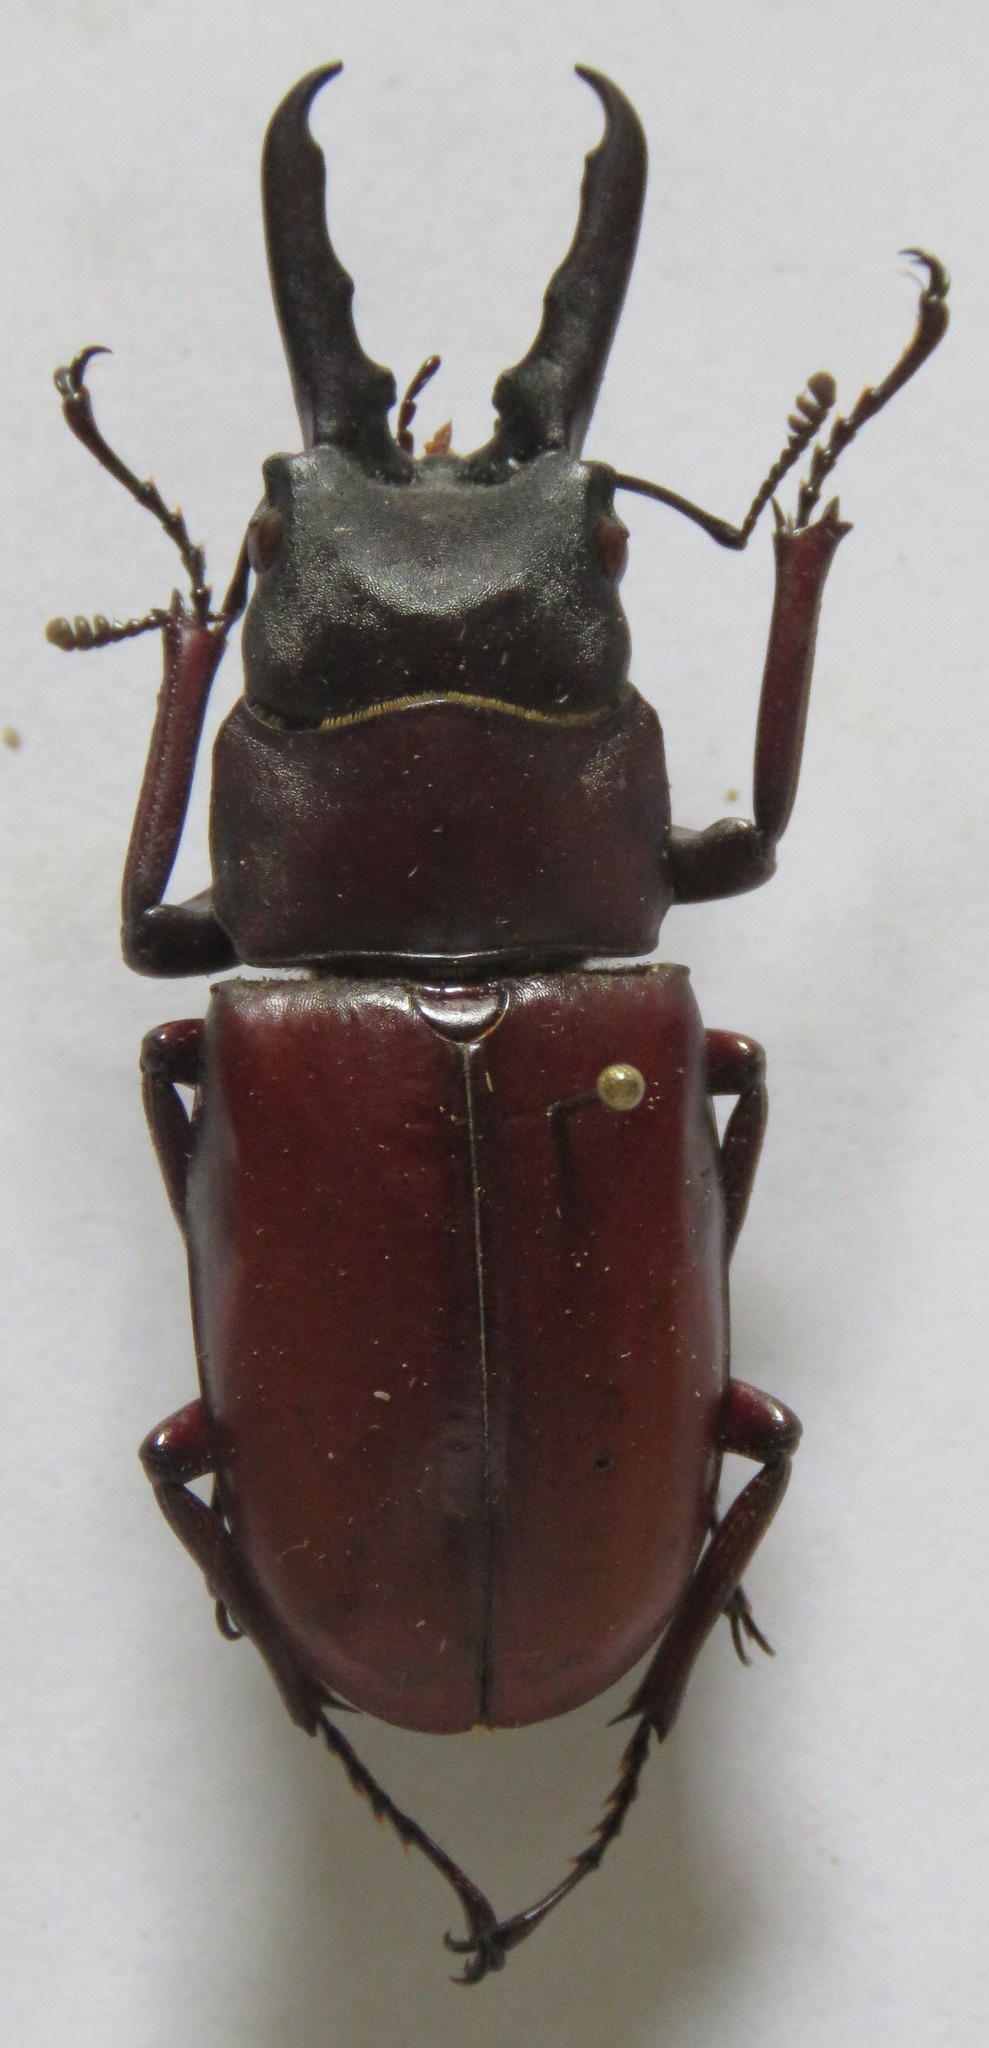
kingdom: Animalia
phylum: Arthropoda
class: Insecta
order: Coleoptera
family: Lucanidae
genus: Prosopocoilus
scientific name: Prosopocoilus myrmecoleon
